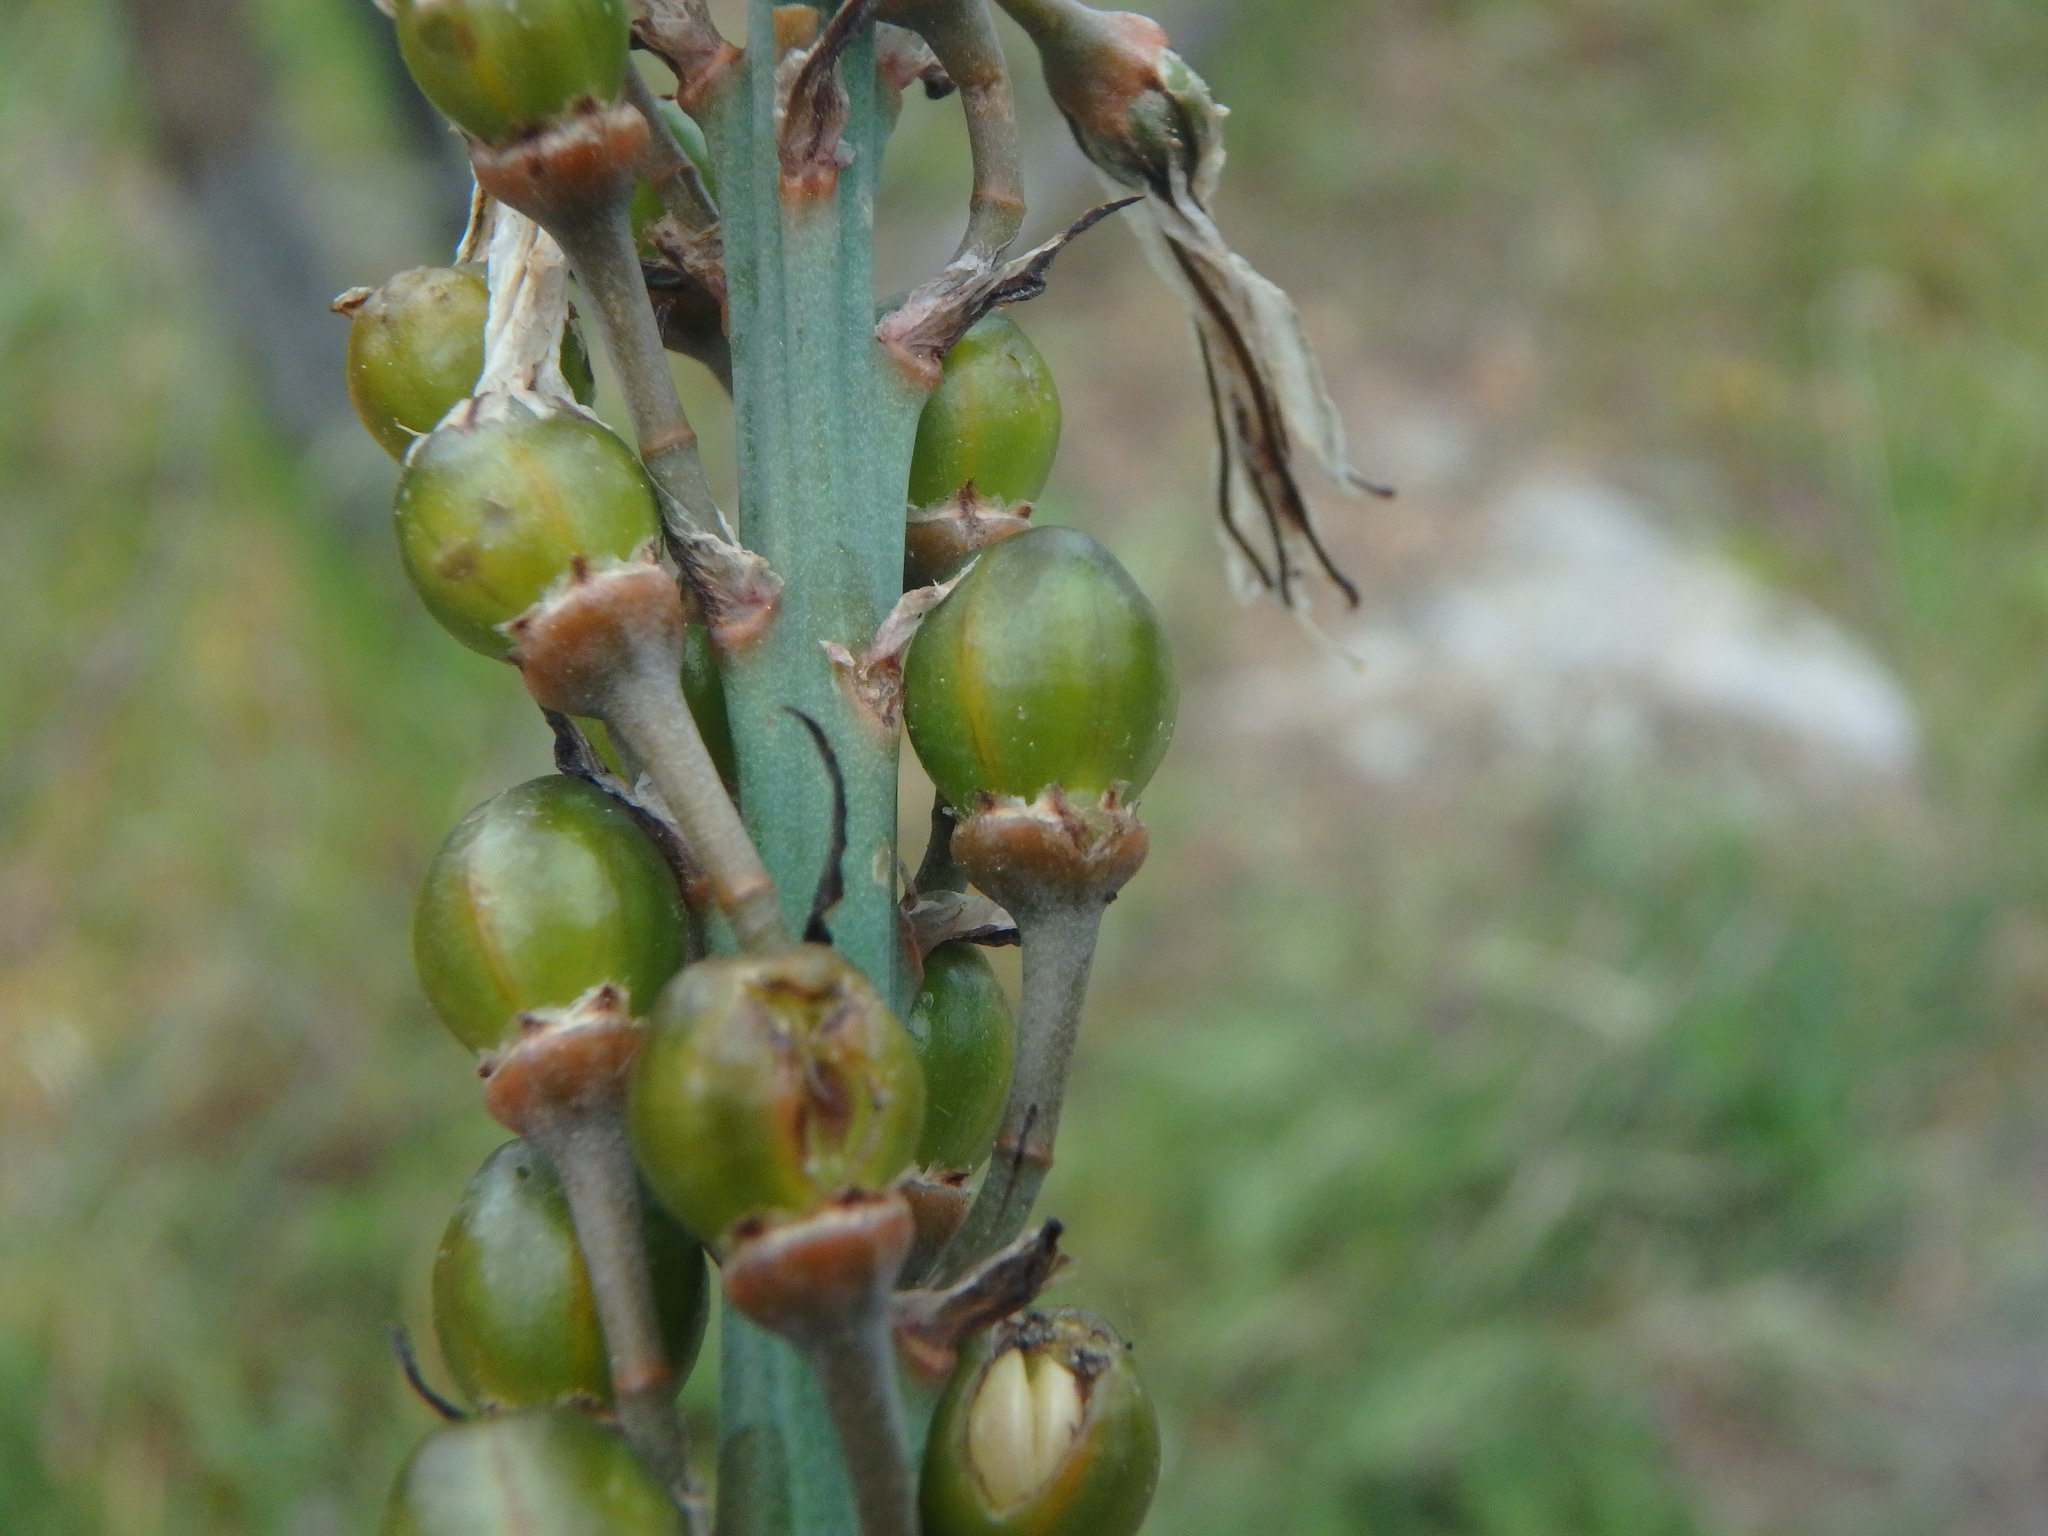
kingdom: Plantae
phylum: Tracheophyta
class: Liliopsida
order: Asparagales
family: Asphodelaceae
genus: Asphodelus
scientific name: Asphodelus aestivus
